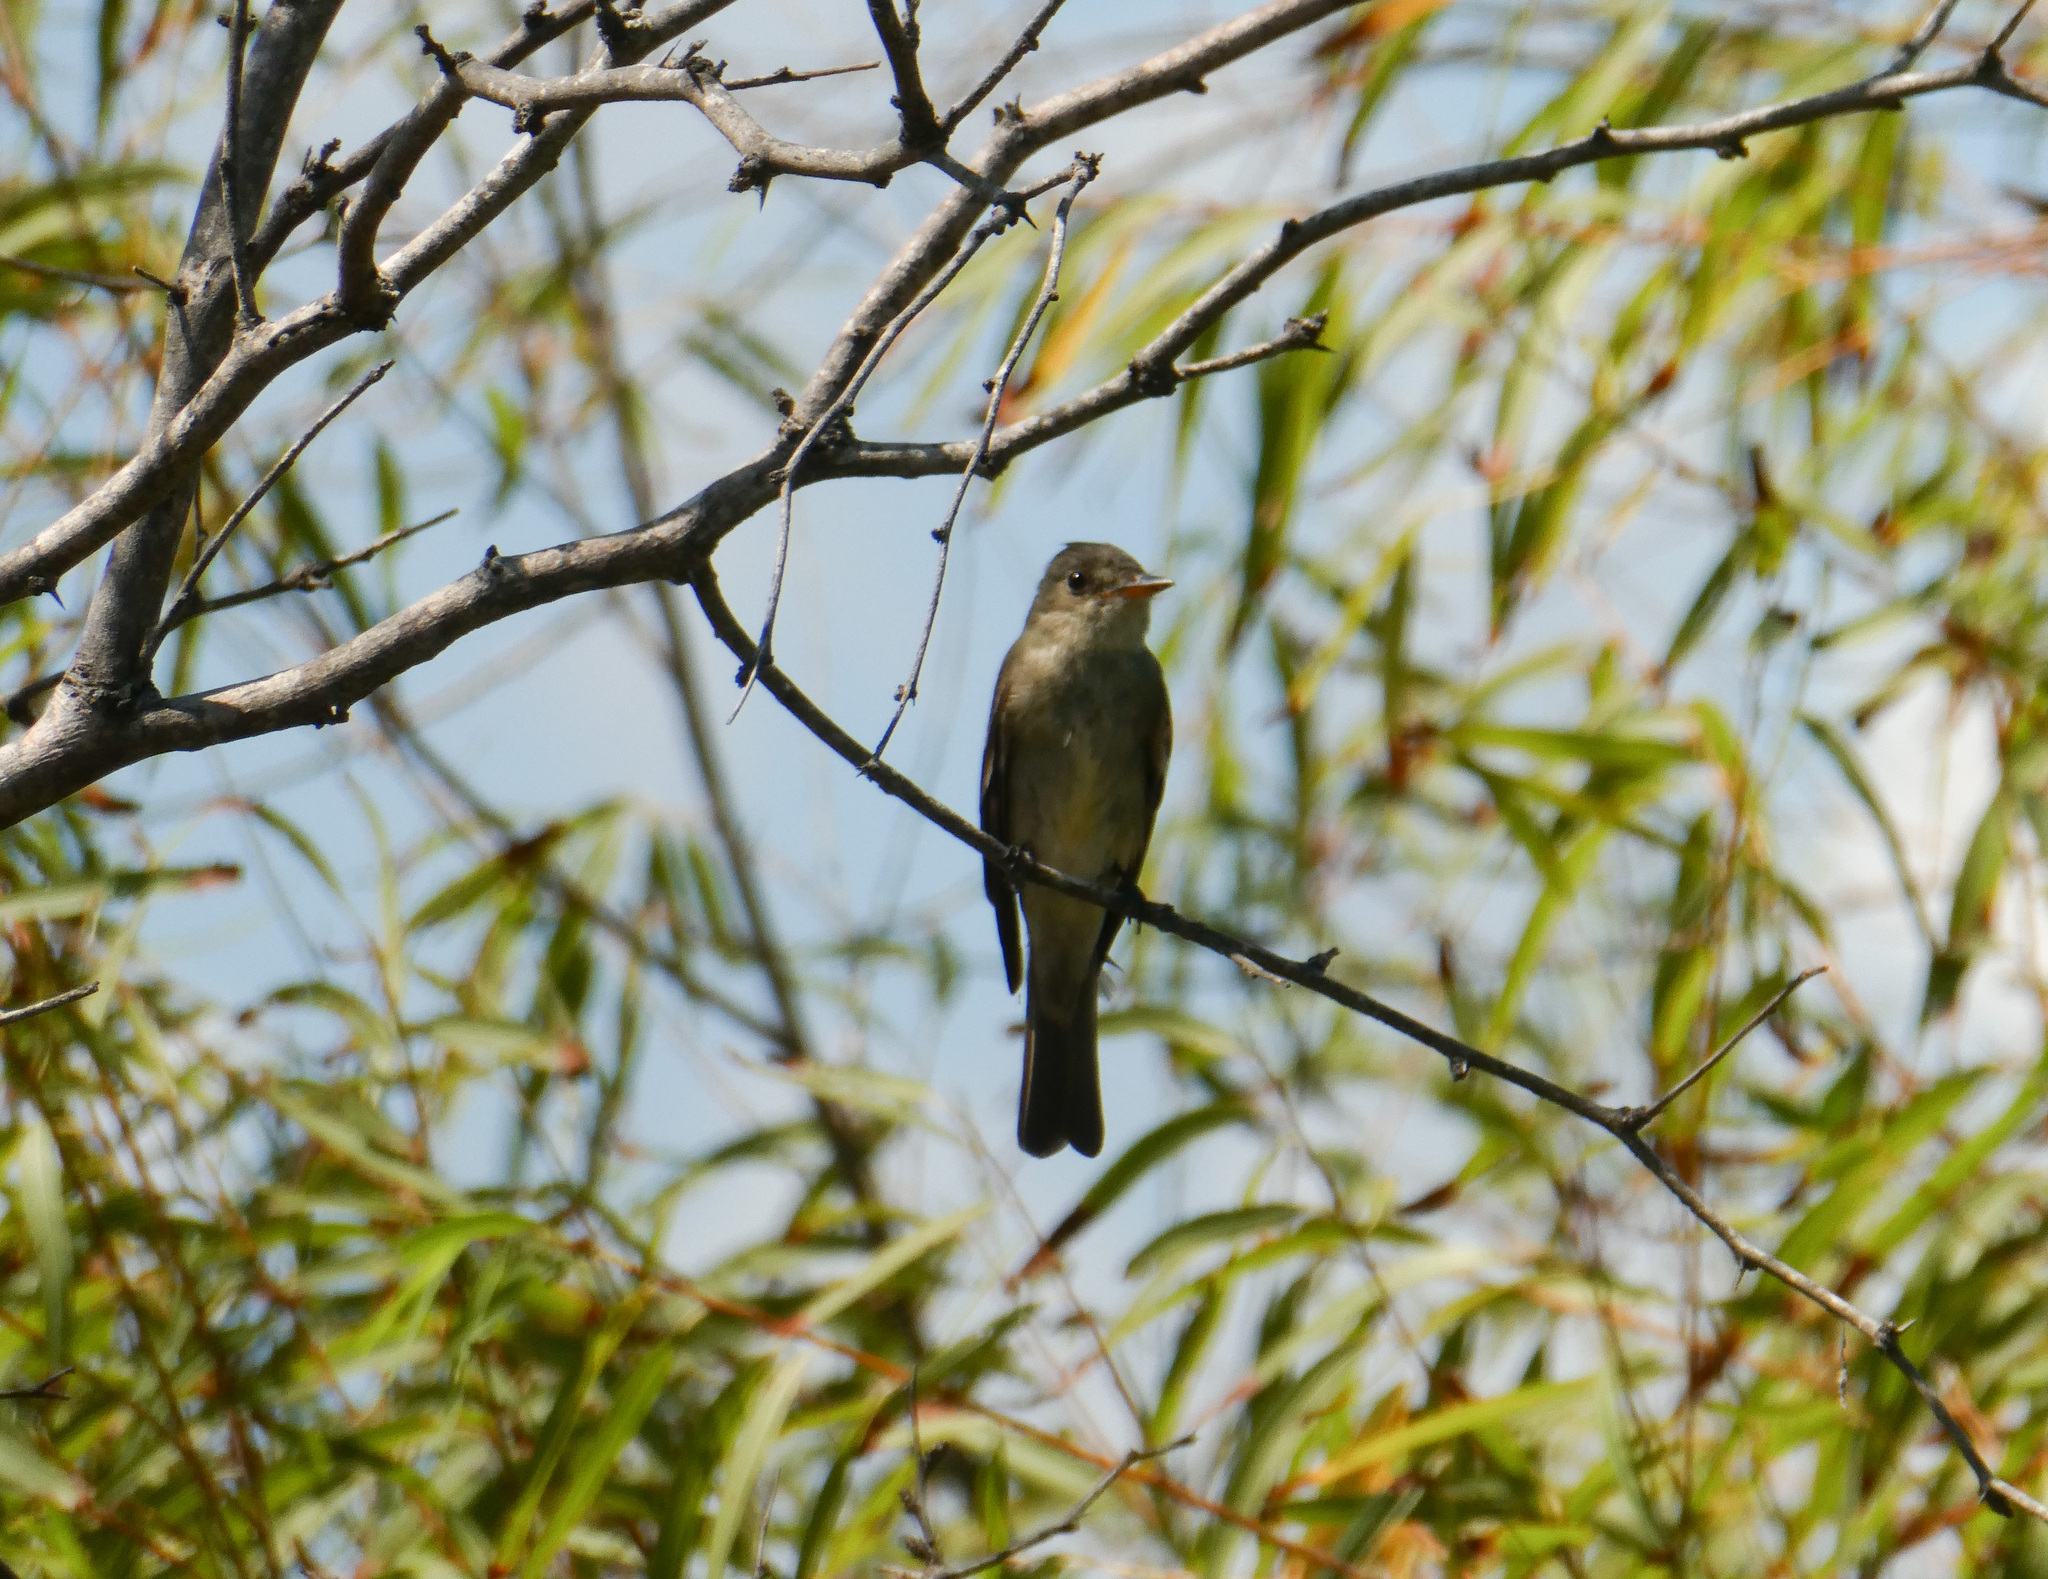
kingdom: Animalia
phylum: Chordata
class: Aves
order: Passeriformes
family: Tyrannidae
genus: Contopus
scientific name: Contopus virens
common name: Eastern wood-pewee
